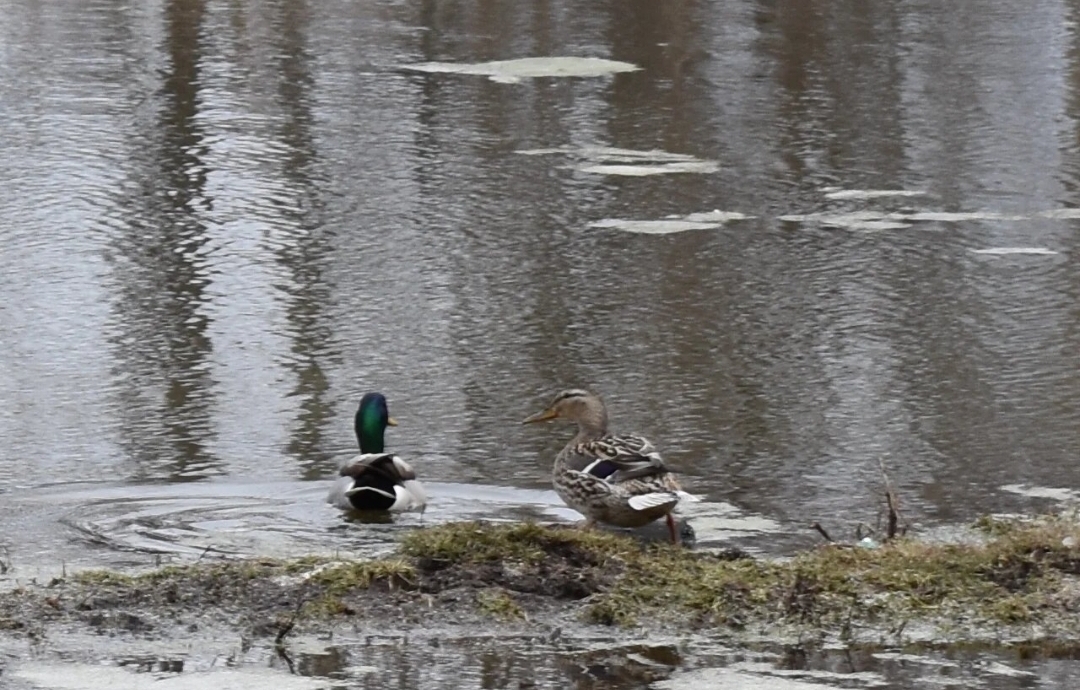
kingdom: Animalia
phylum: Chordata
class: Aves
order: Anseriformes
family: Anatidae
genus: Anas
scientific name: Anas platyrhynchos
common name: Mallard
